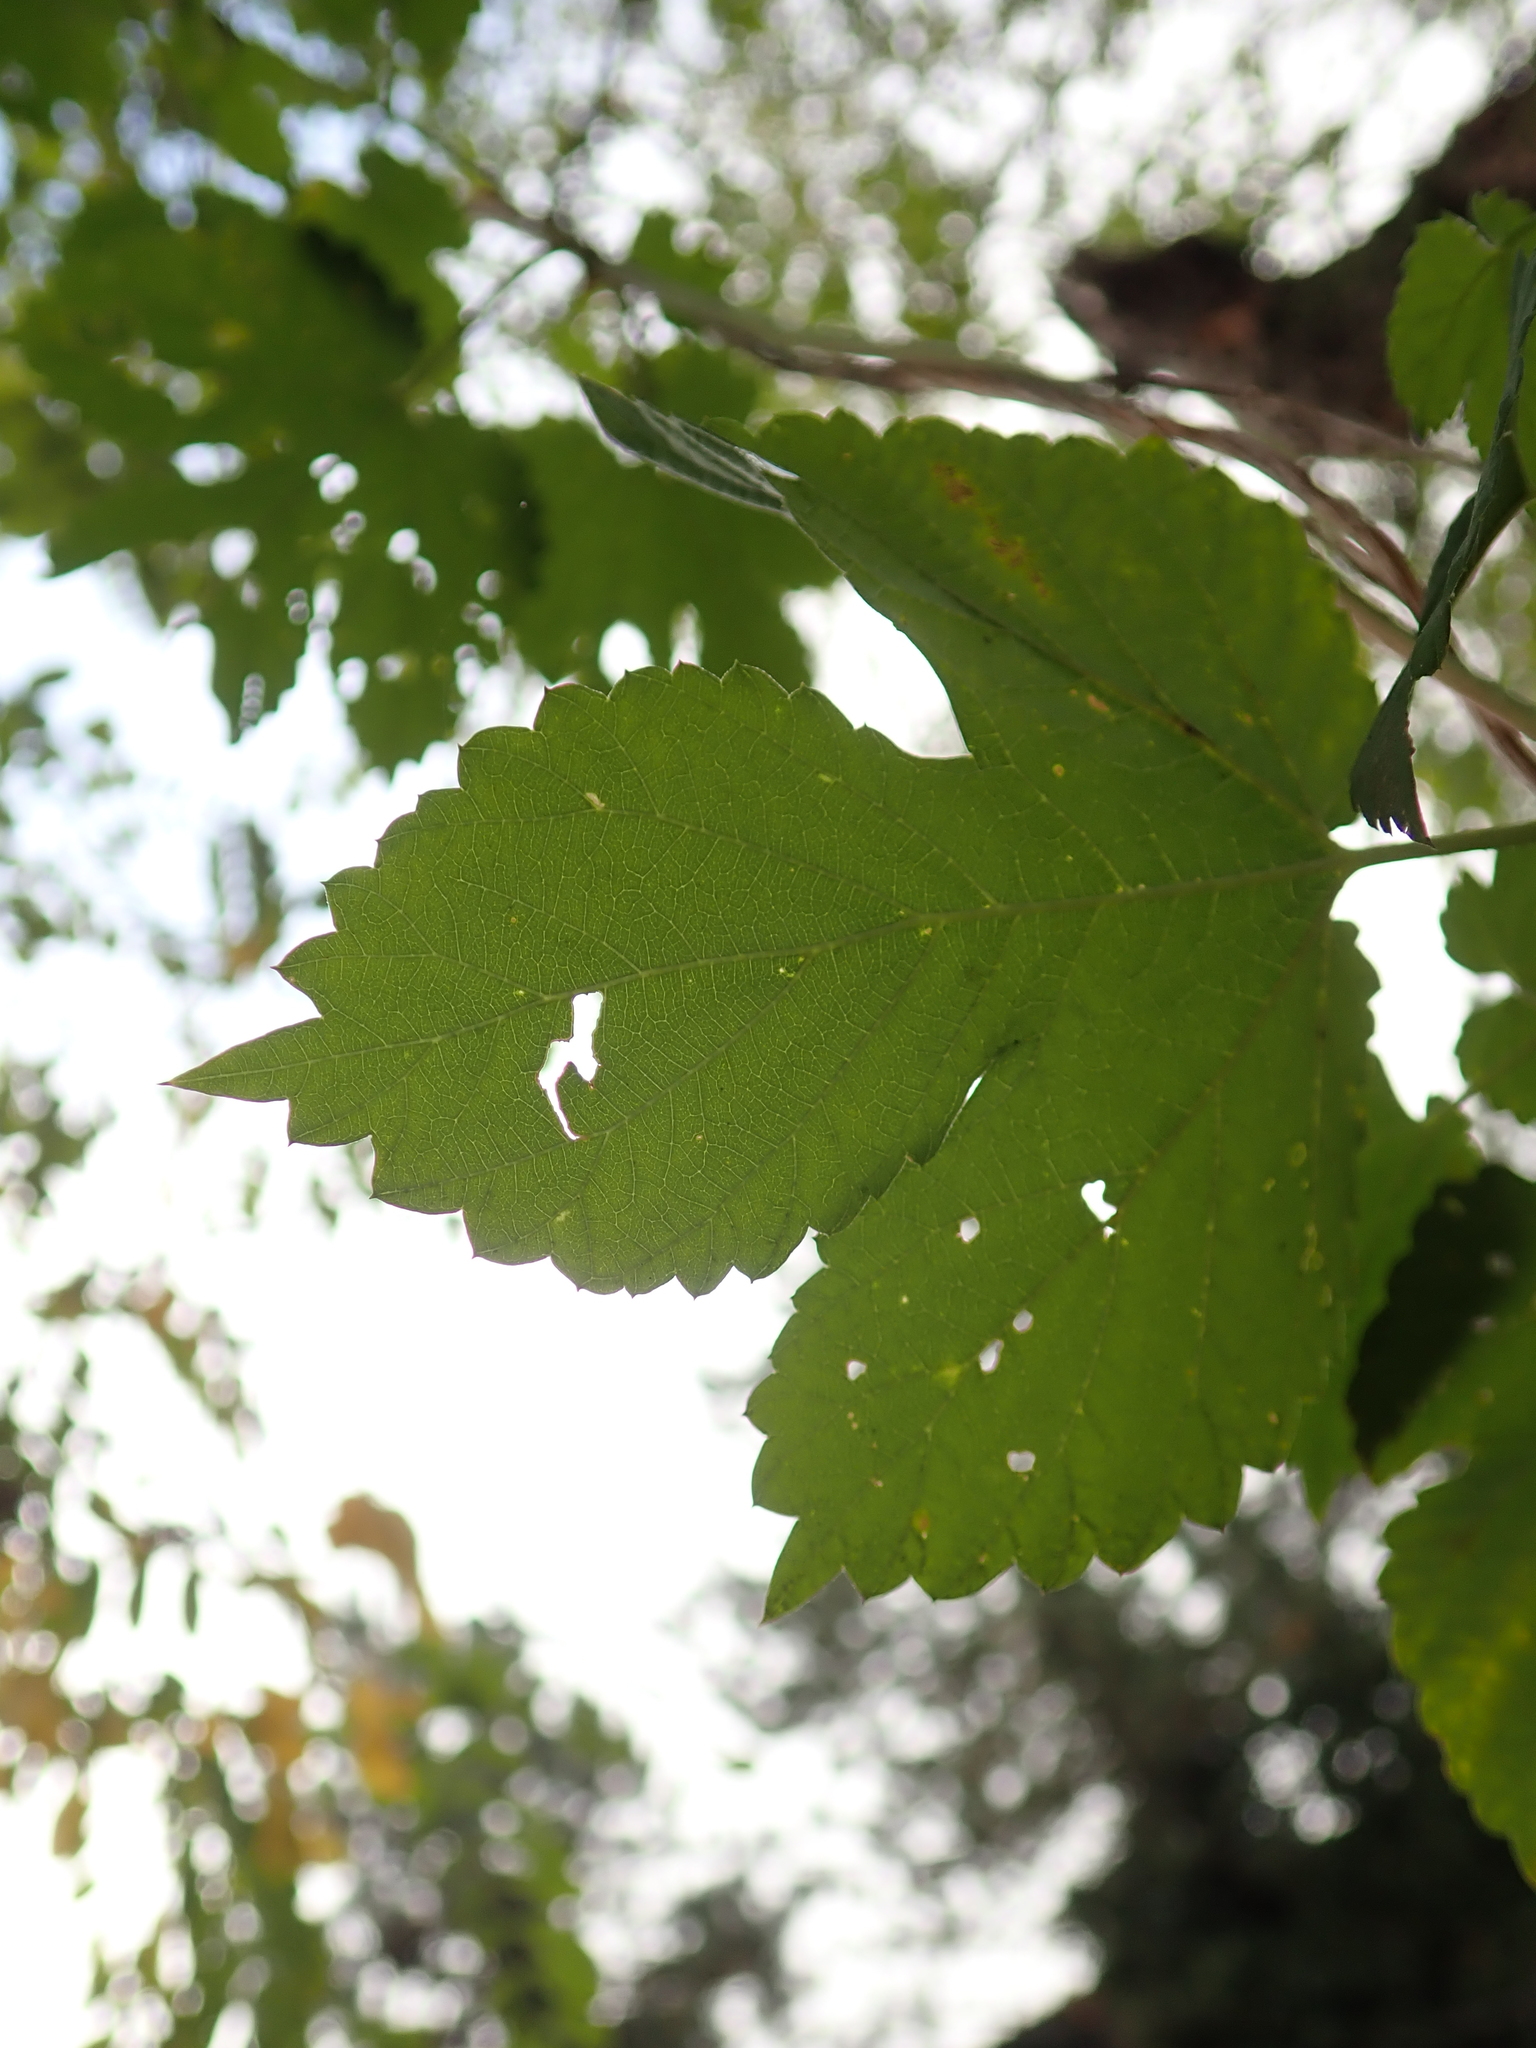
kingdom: Plantae
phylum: Tracheophyta
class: Magnoliopsida
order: Rosales
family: Cannabaceae
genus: Humulus
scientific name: Humulus lupulus
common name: Hop
